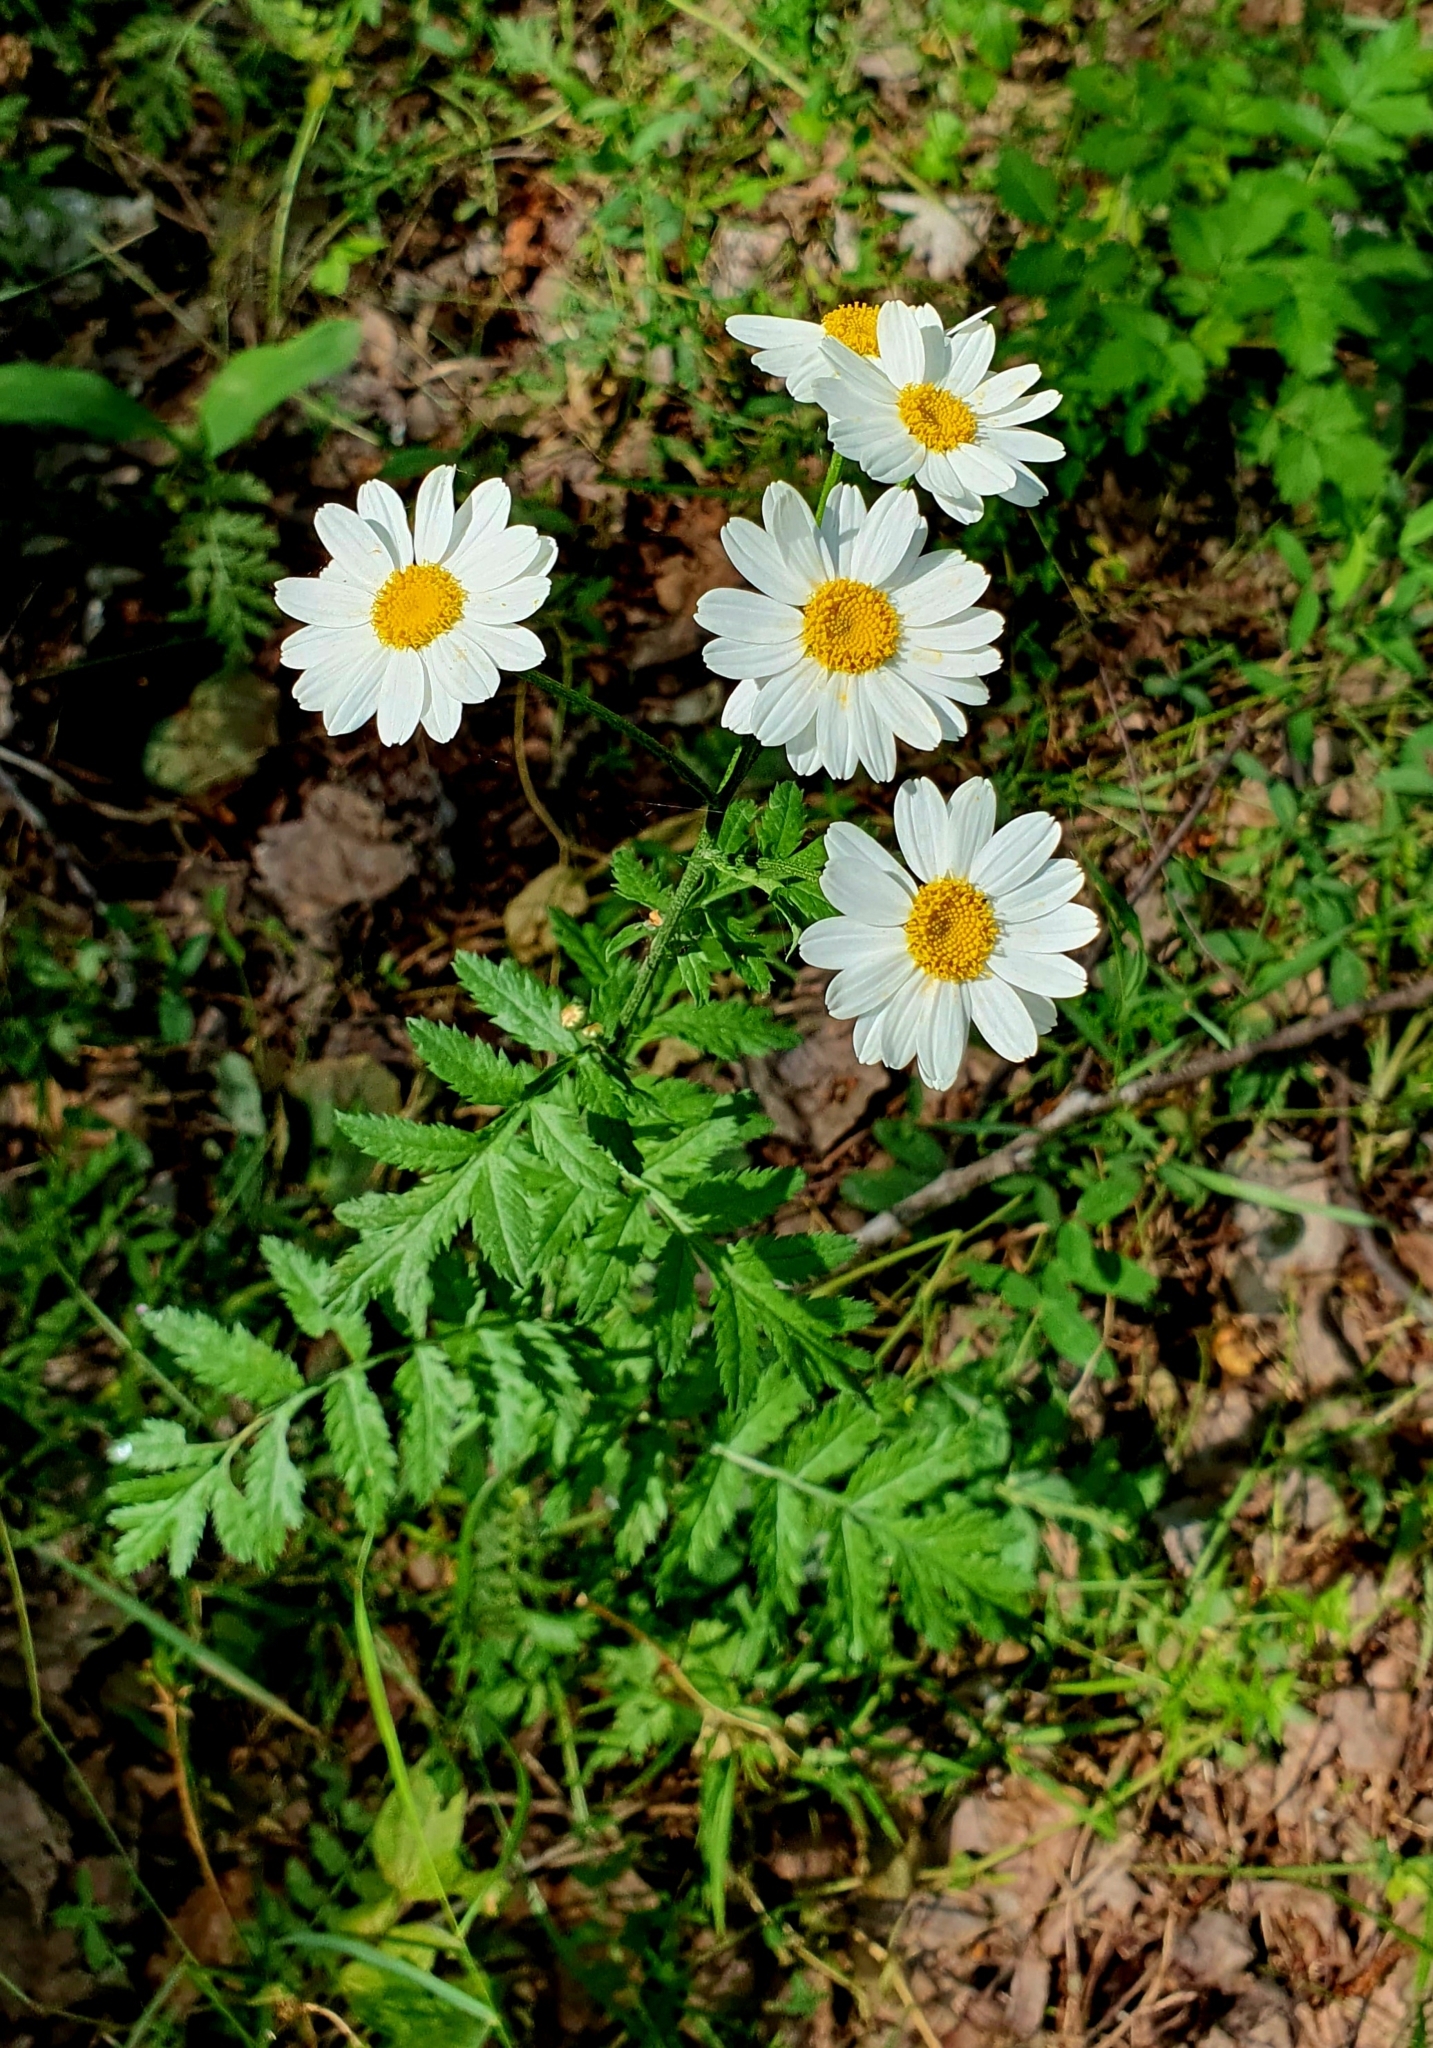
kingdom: Plantae
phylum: Tracheophyta
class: Magnoliopsida
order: Asterales
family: Asteraceae
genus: Tanacetum
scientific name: Tanacetum corymbosum
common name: Scentless feverfew
